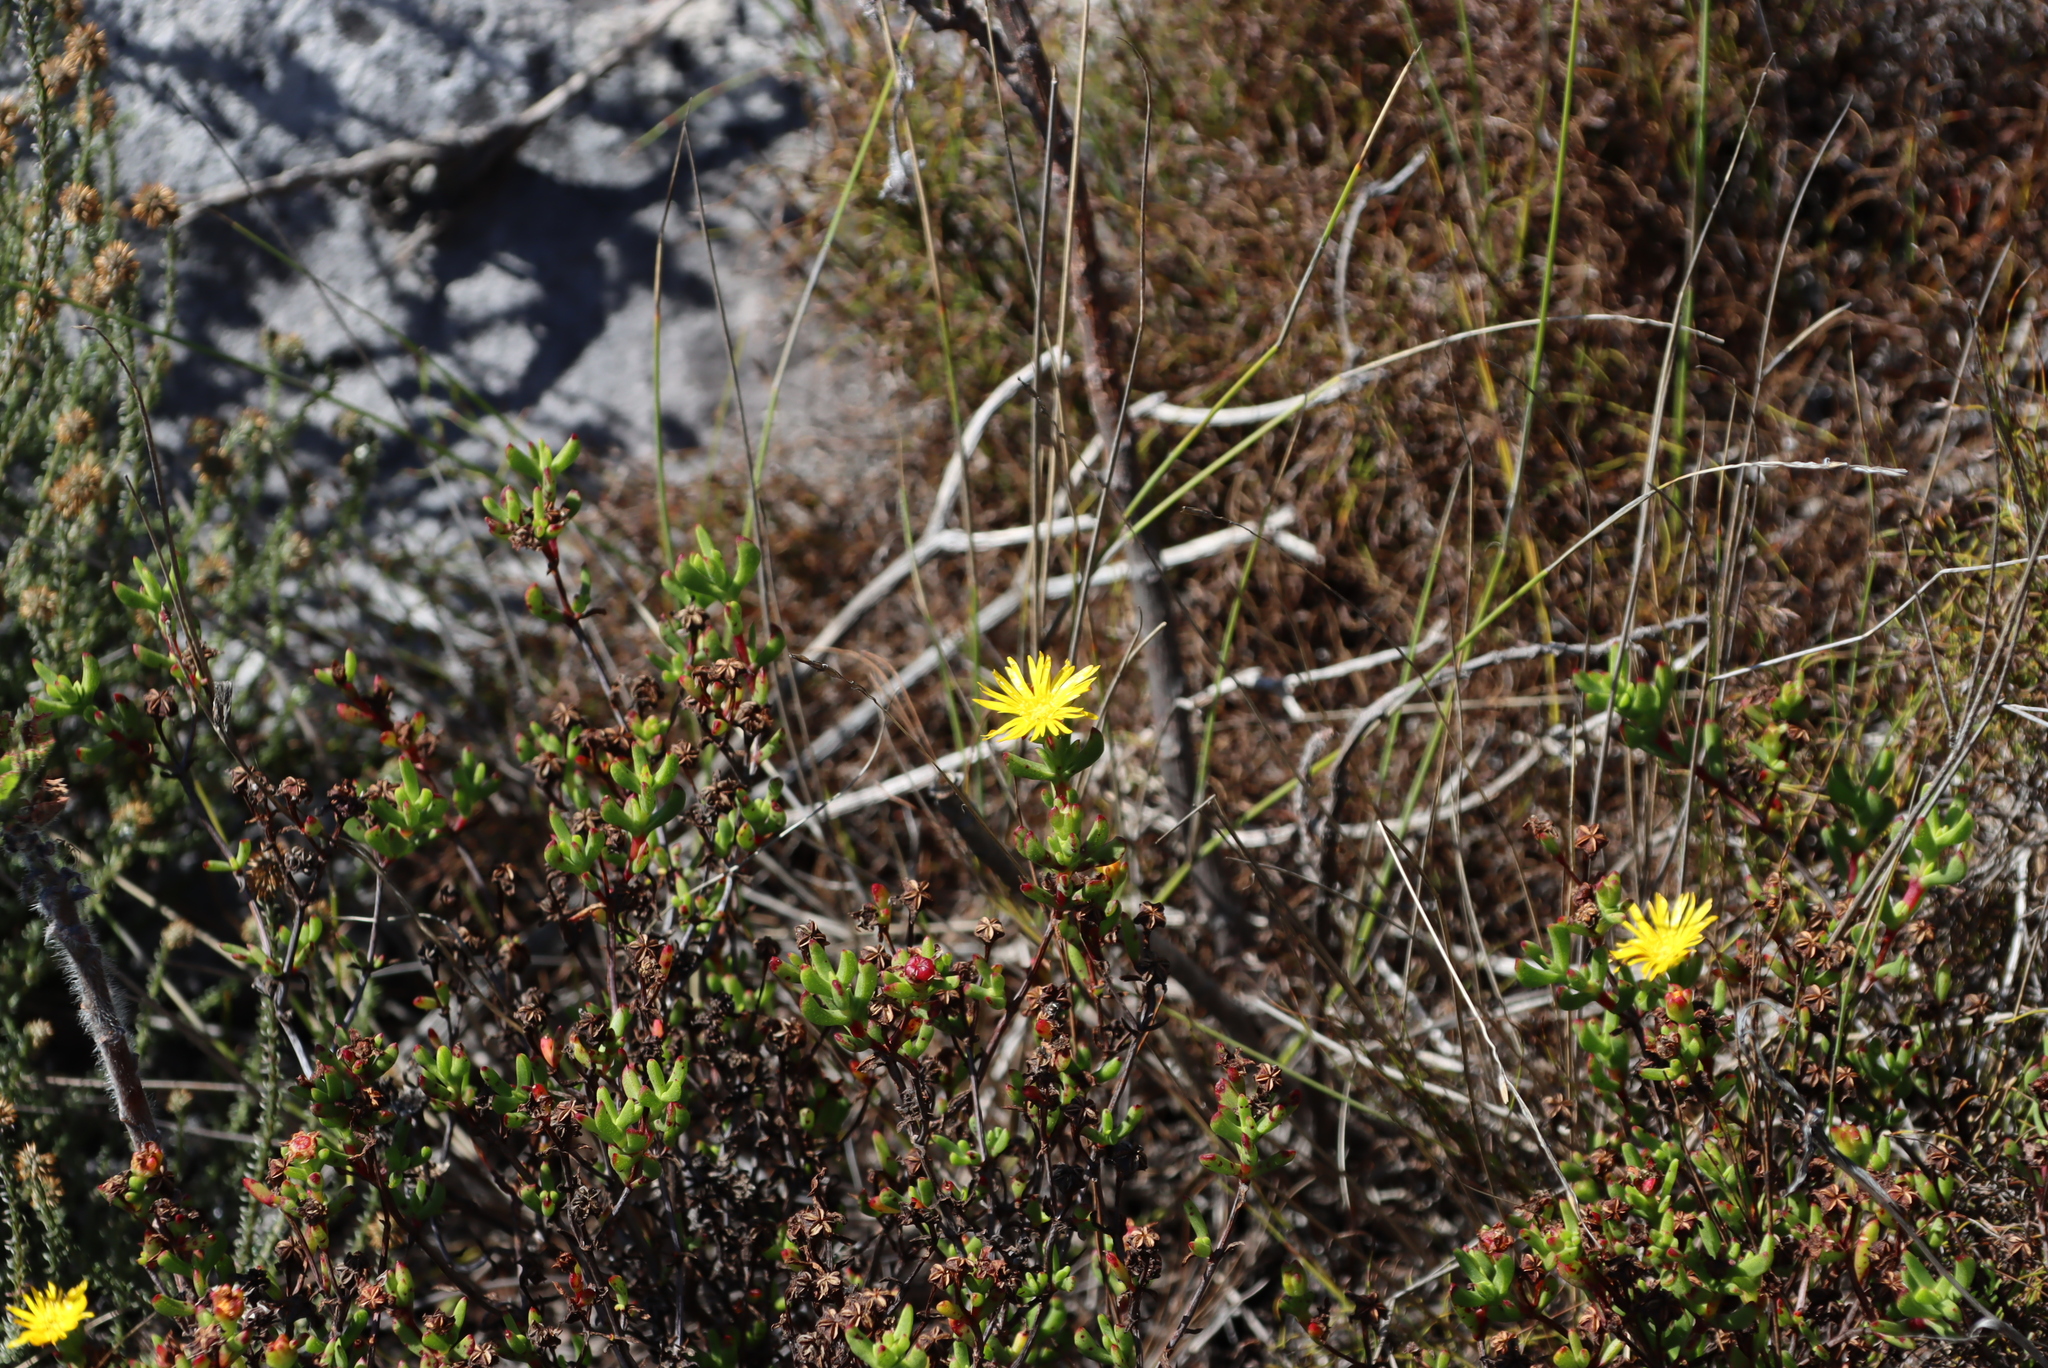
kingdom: Plantae
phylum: Tracheophyta
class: Magnoliopsida
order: Caryophyllales
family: Aizoaceae
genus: Lampranthus
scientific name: Lampranthus promontorii
